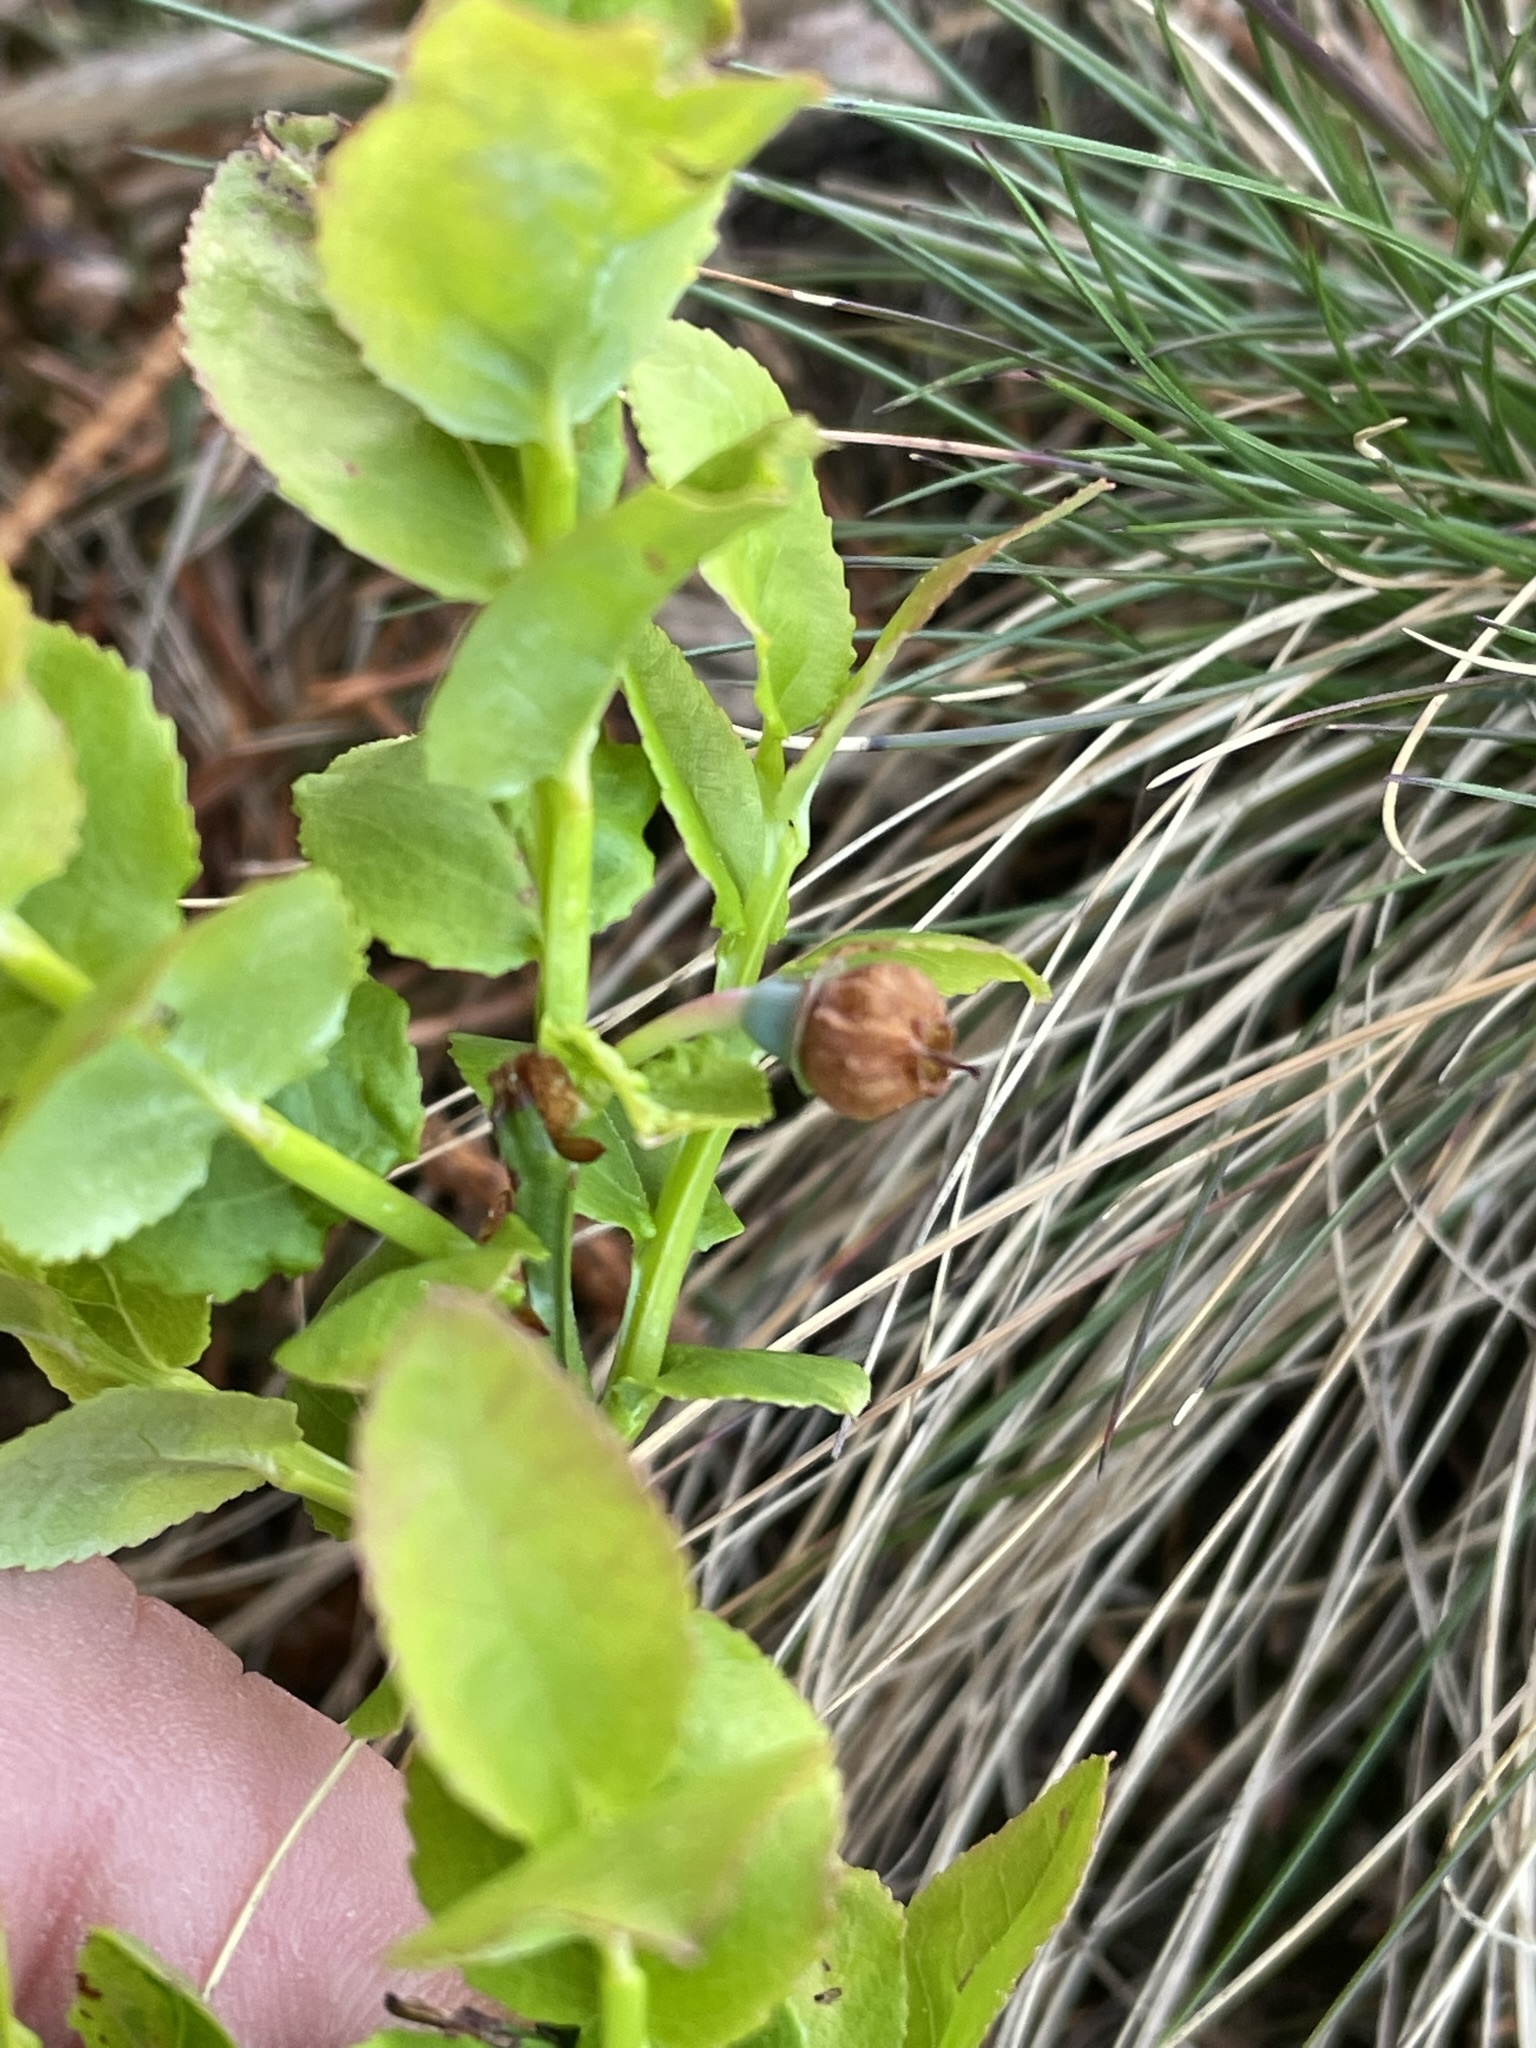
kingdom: Plantae
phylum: Tracheophyta
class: Magnoliopsida
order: Ericales
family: Ericaceae
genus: Vaccinium
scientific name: Vaccinium myrtillus
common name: Bilberry
